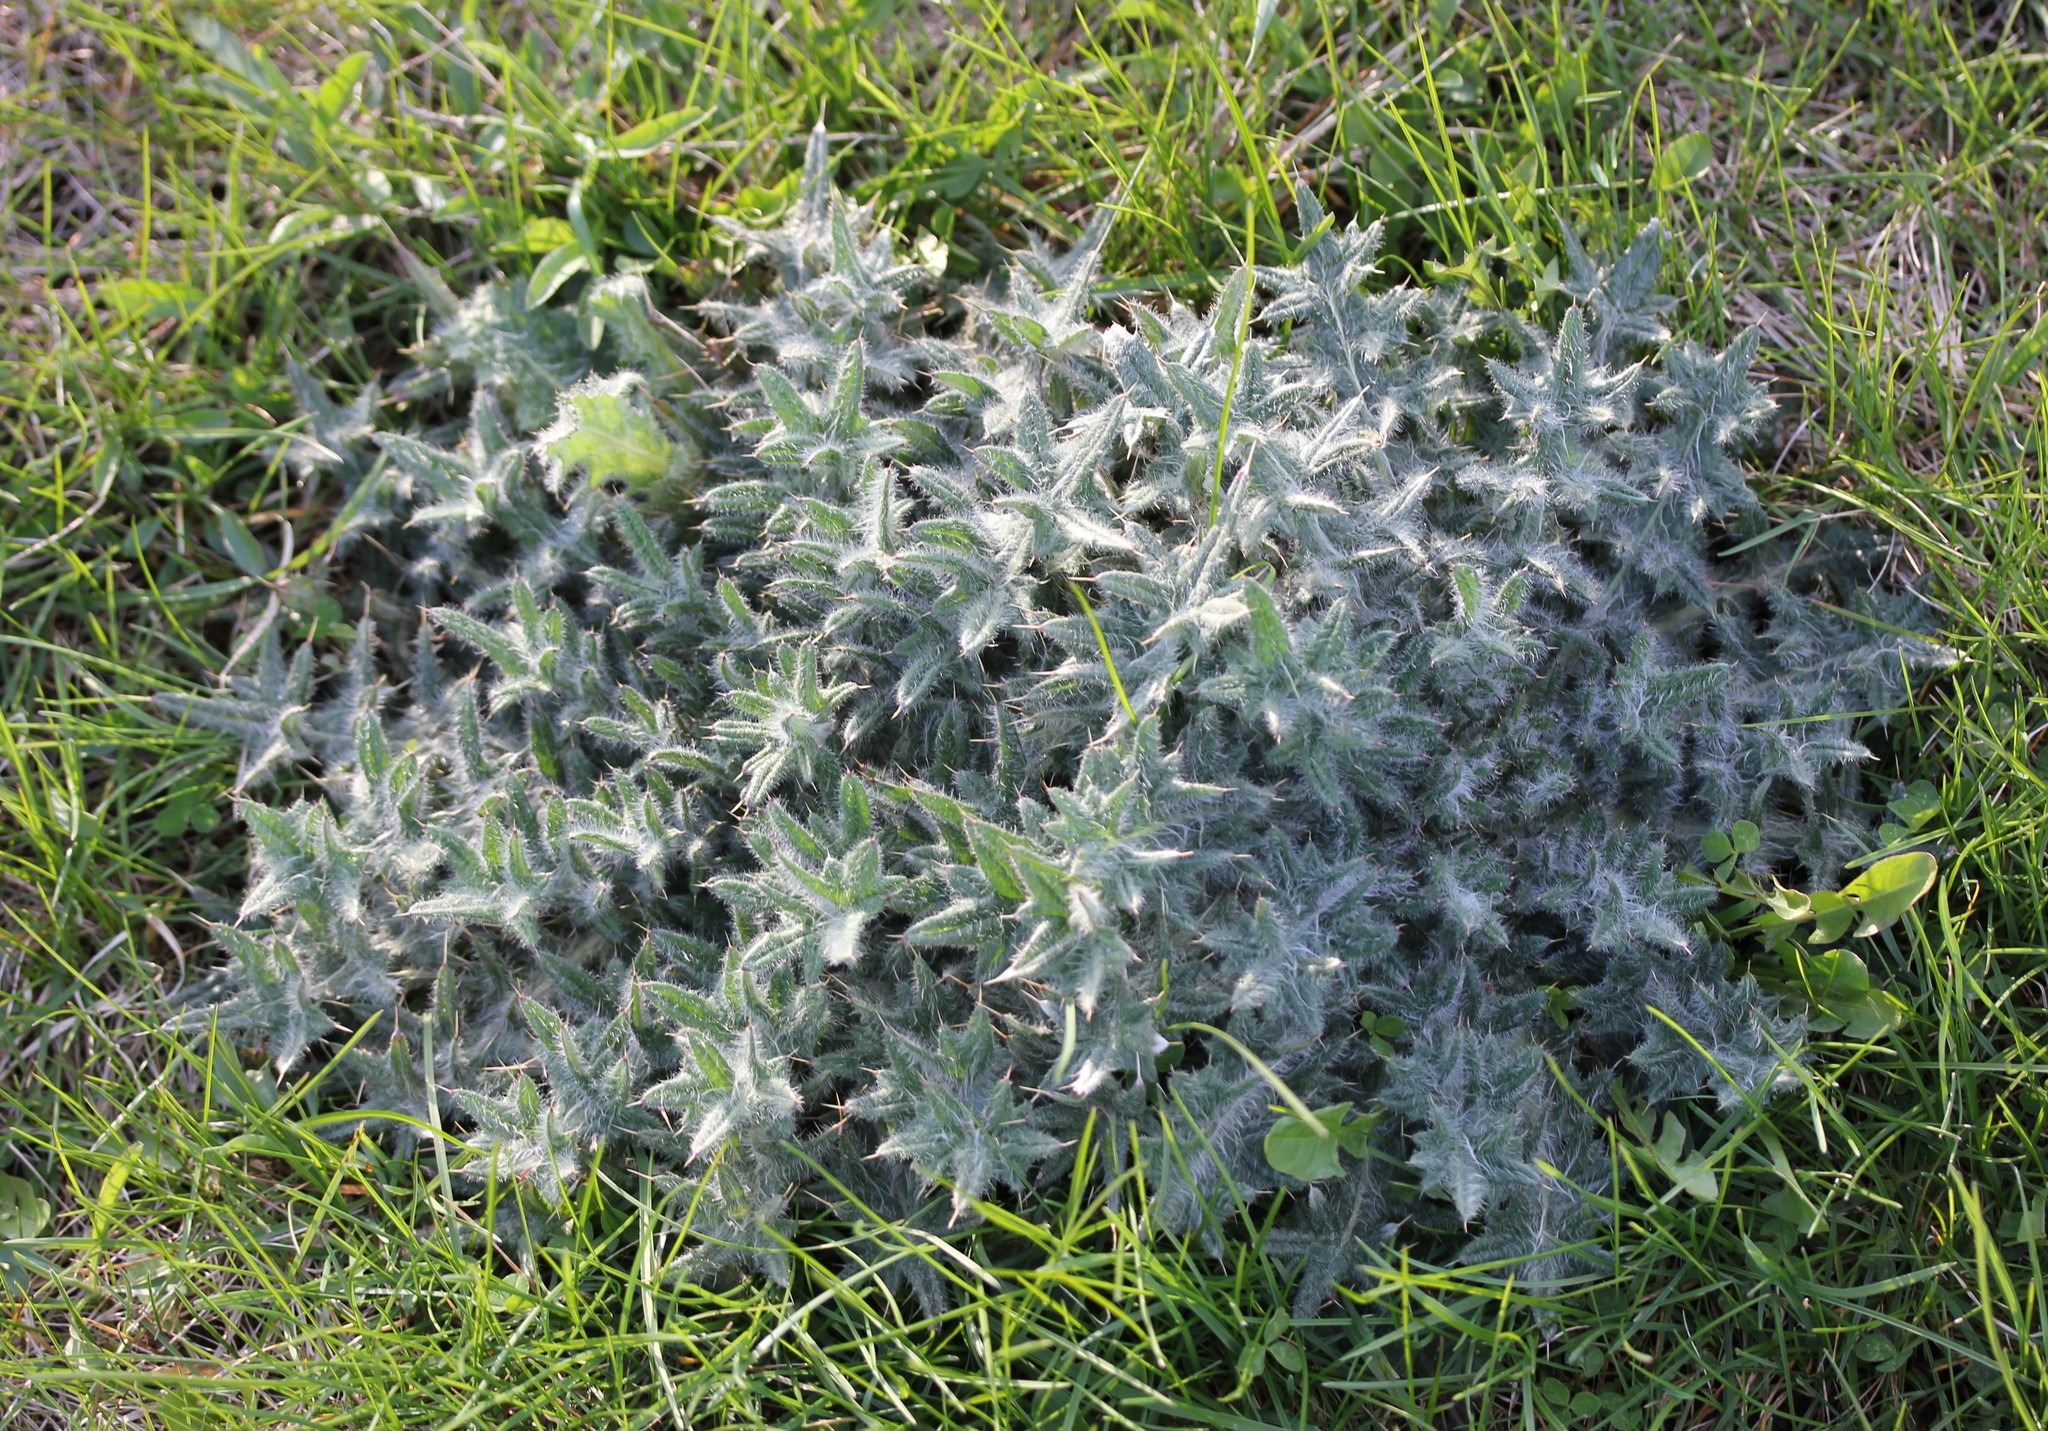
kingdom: Plantae
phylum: Tracheophyta
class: Magnoliopsida
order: Asterales
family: Asteraceae
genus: Cirsium
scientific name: Cirsium vulgare
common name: Bull thistle
